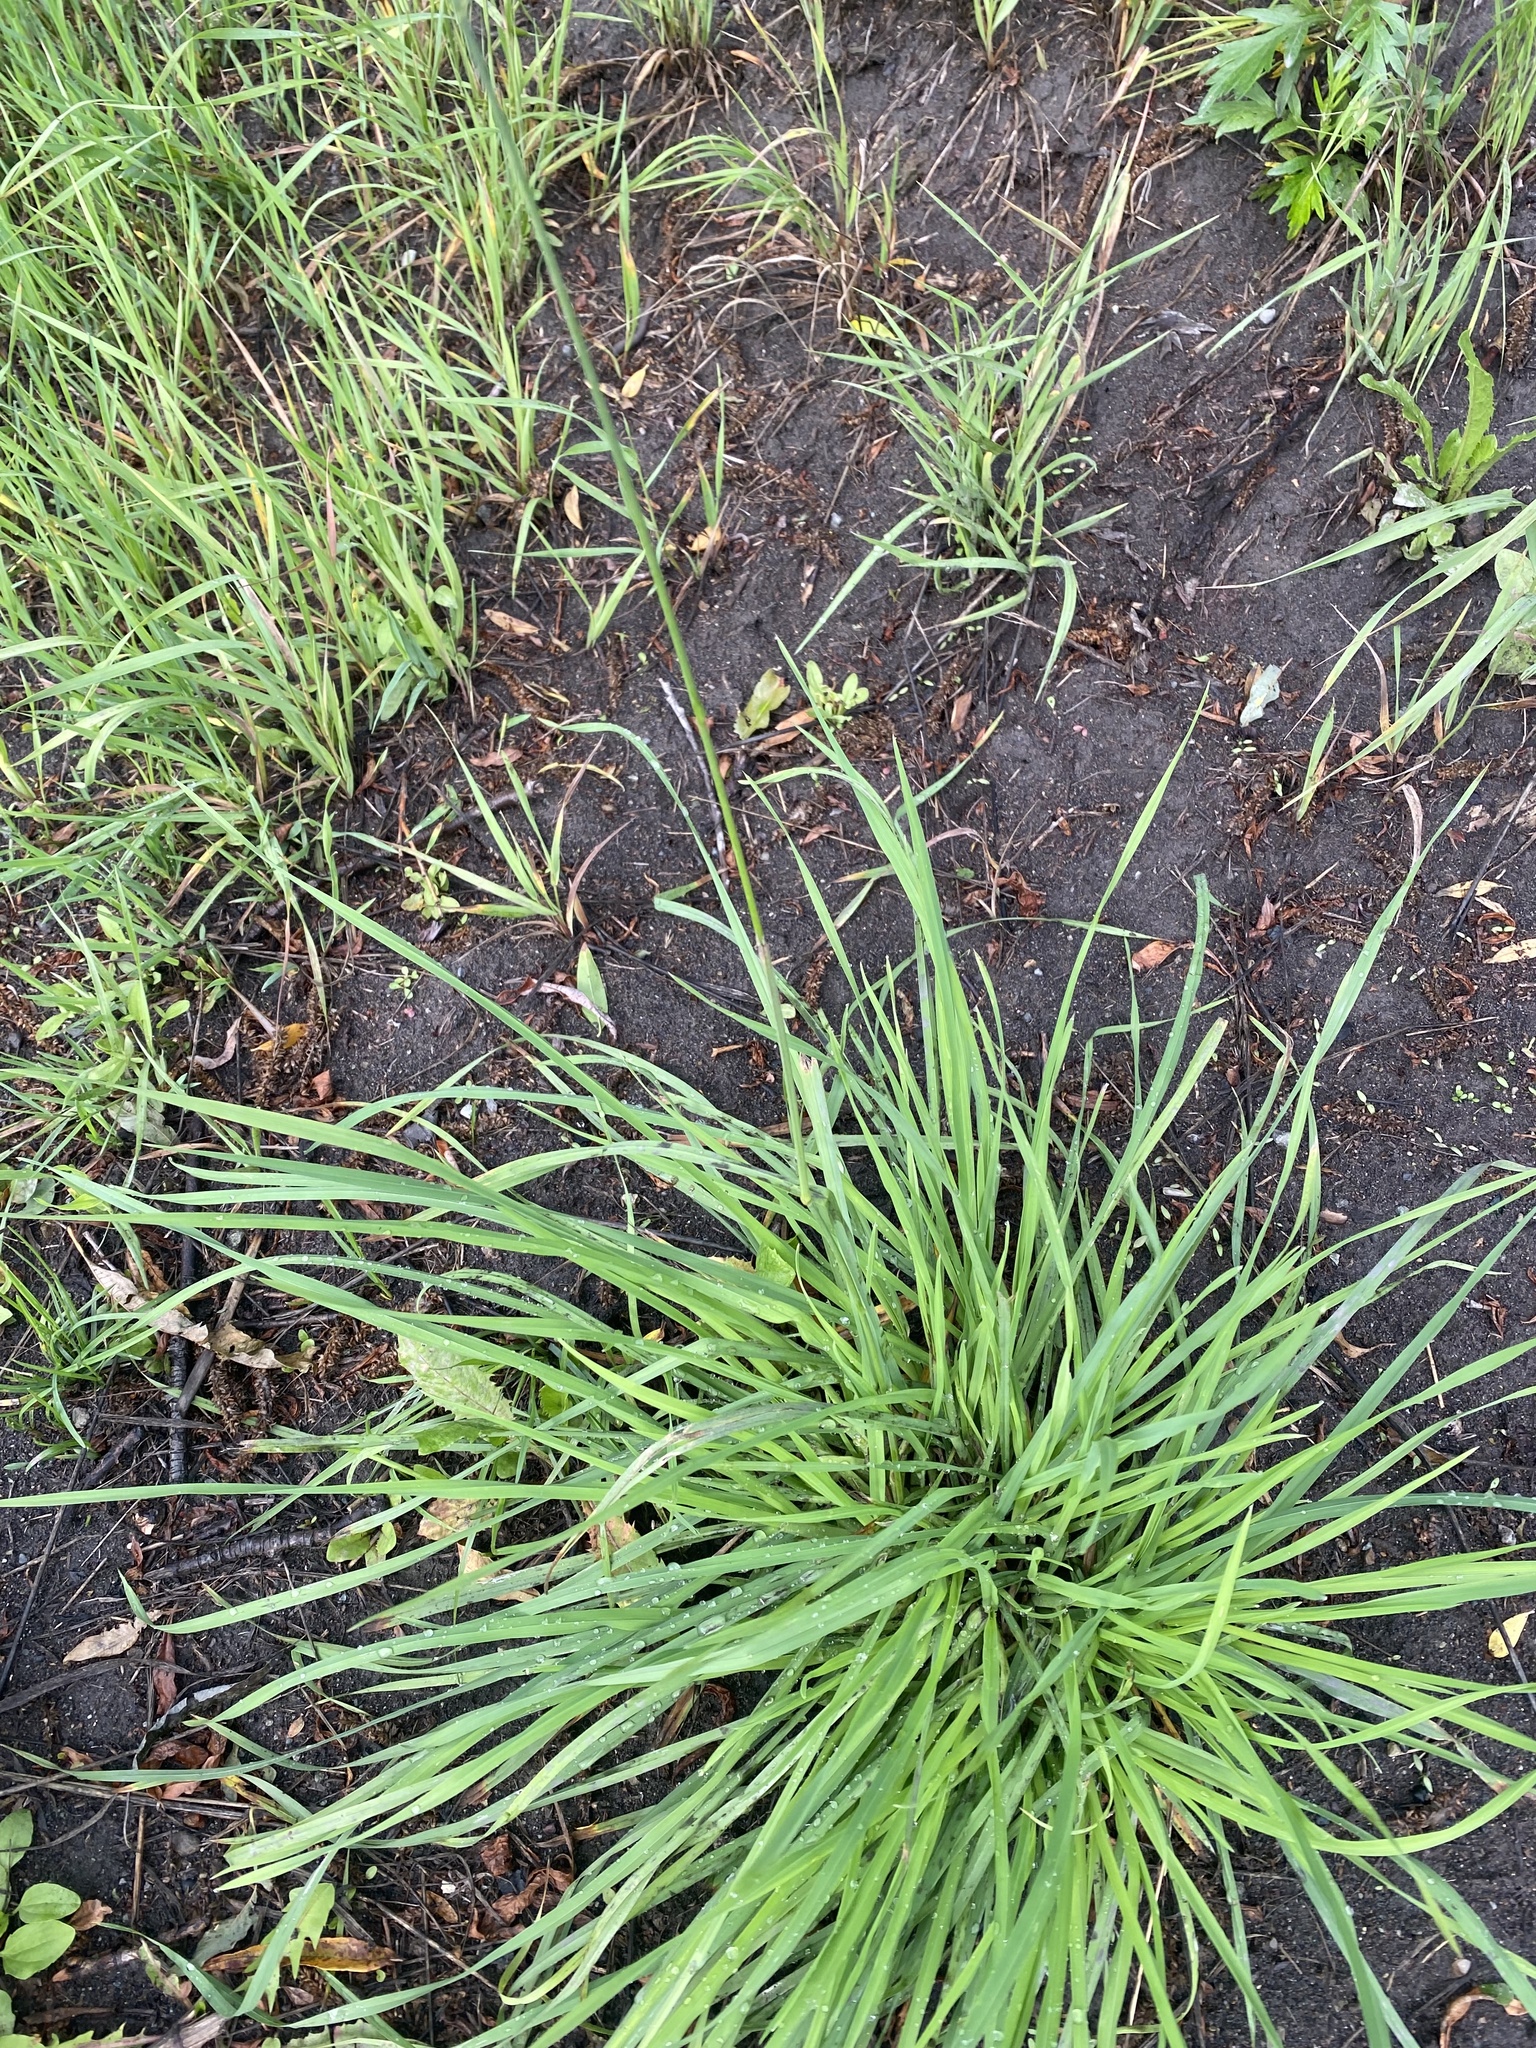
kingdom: Plantae
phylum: Tracheophyta
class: Liliopsida
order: Poales
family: Poaceae
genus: Dactylis
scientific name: Dactylis glomerata
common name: Orchardgrass
